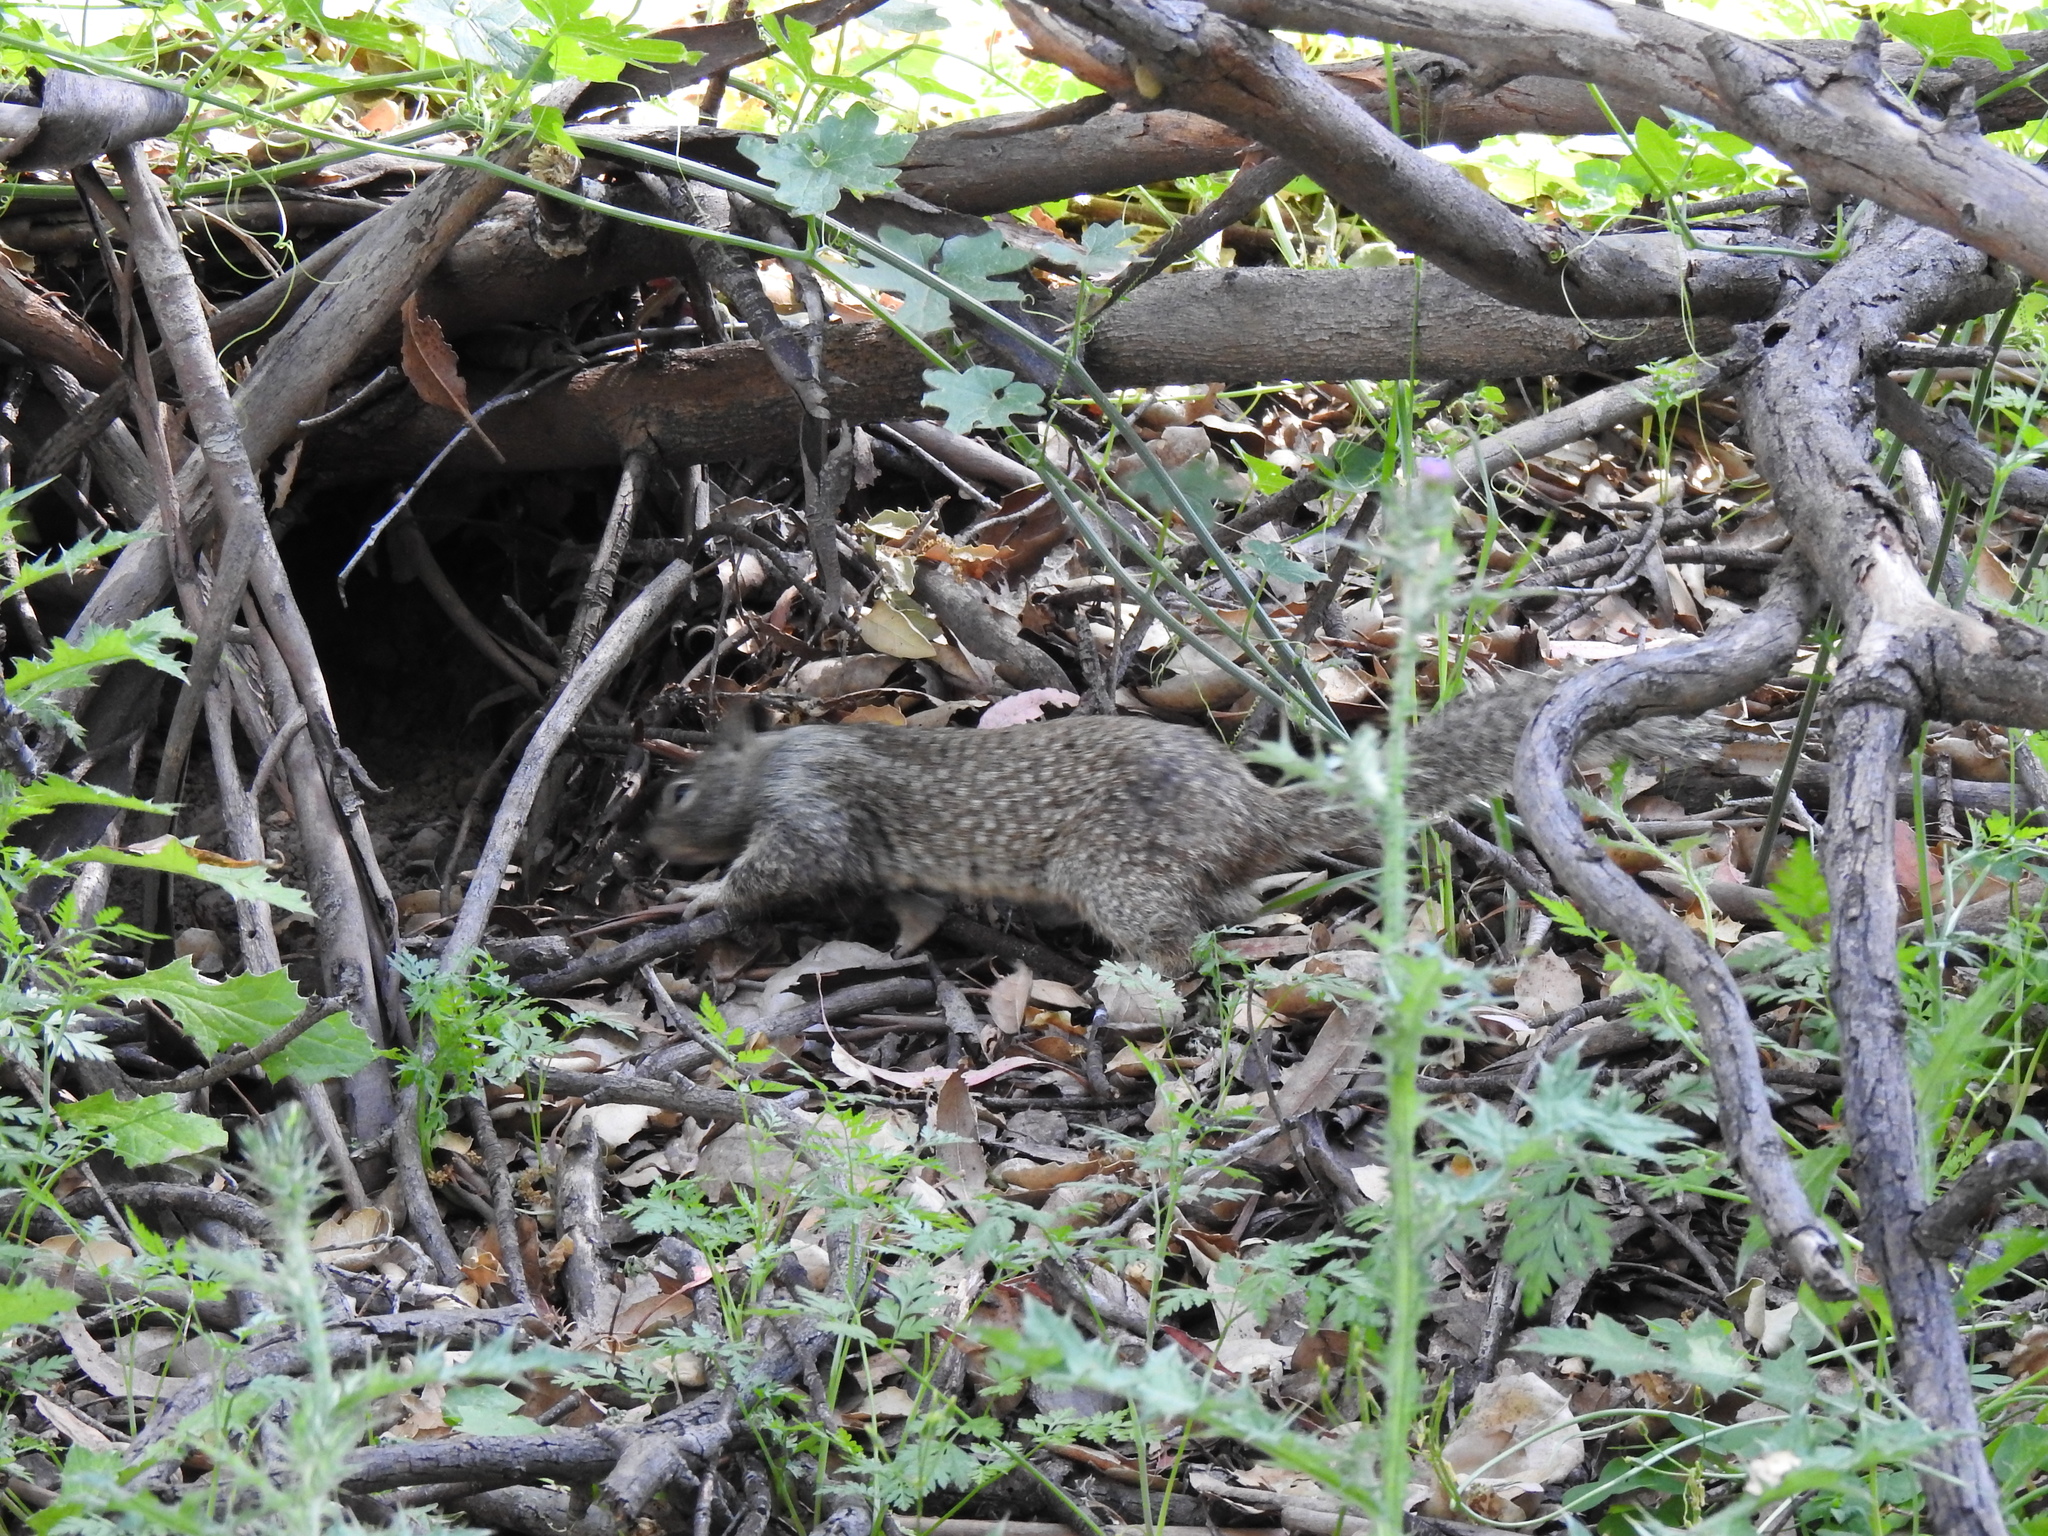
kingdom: Animalia
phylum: Chordata
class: Mammalia
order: Rodentia
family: Sciuridae
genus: Otospermophilus
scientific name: Otospermophilus beecheyi
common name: California ground squirrel
